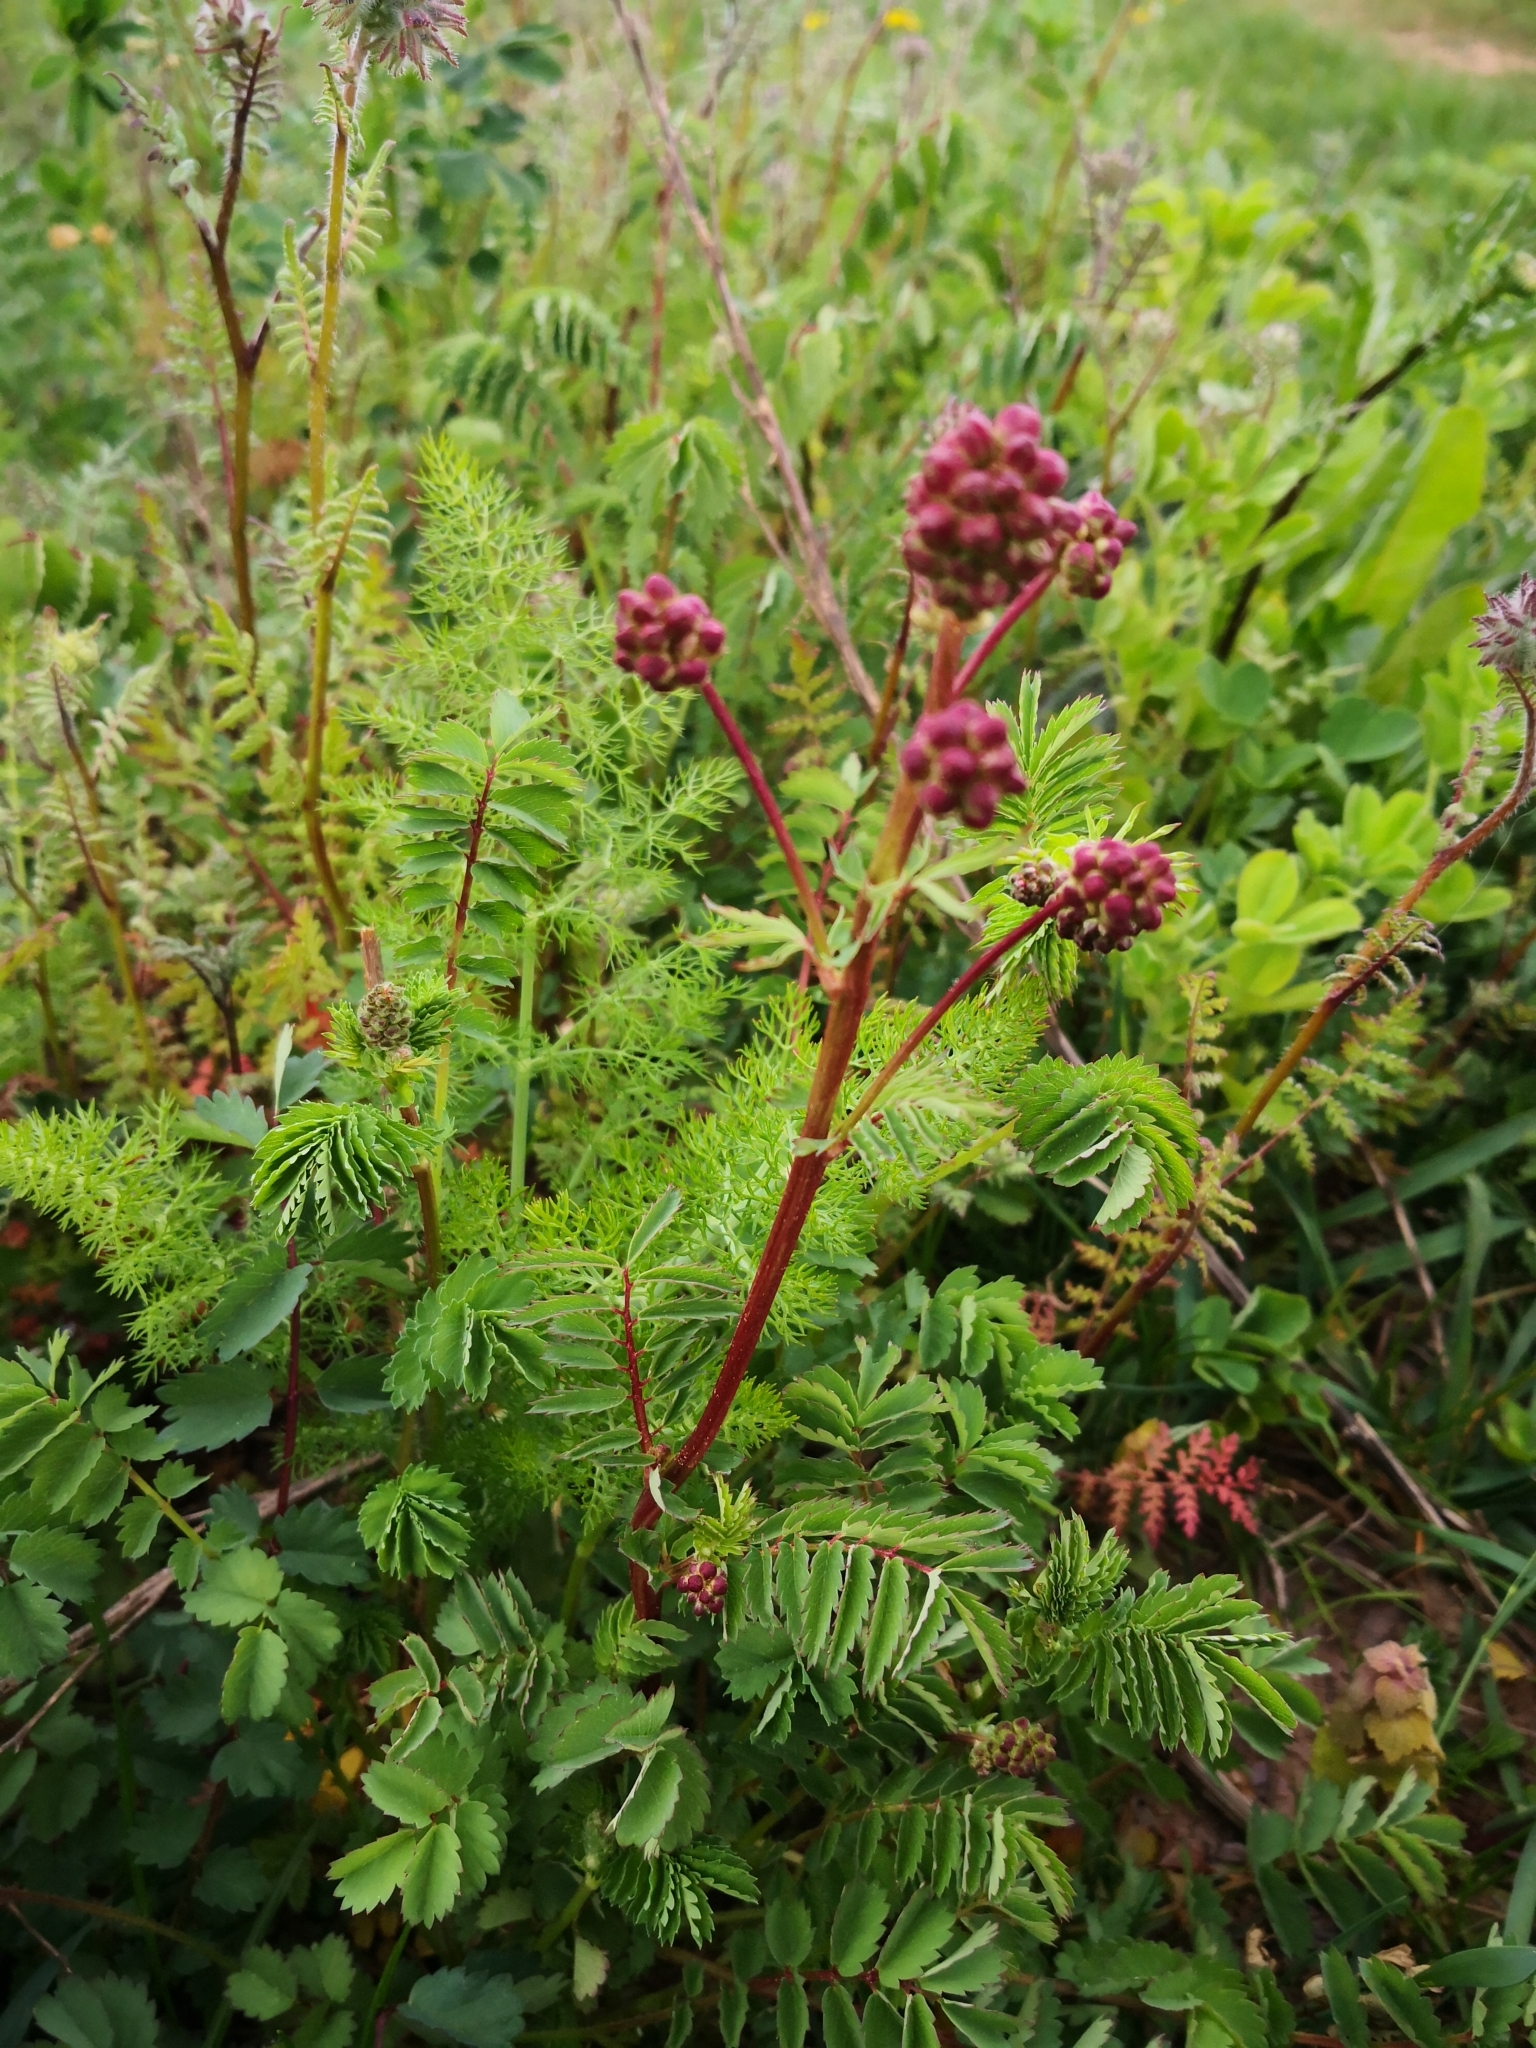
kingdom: Plantae
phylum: Tracheophyta
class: Magnoliopsida
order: Rosales
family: Rosaceae
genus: Poterium
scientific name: Poterium sanguisorba
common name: Salad burnet
